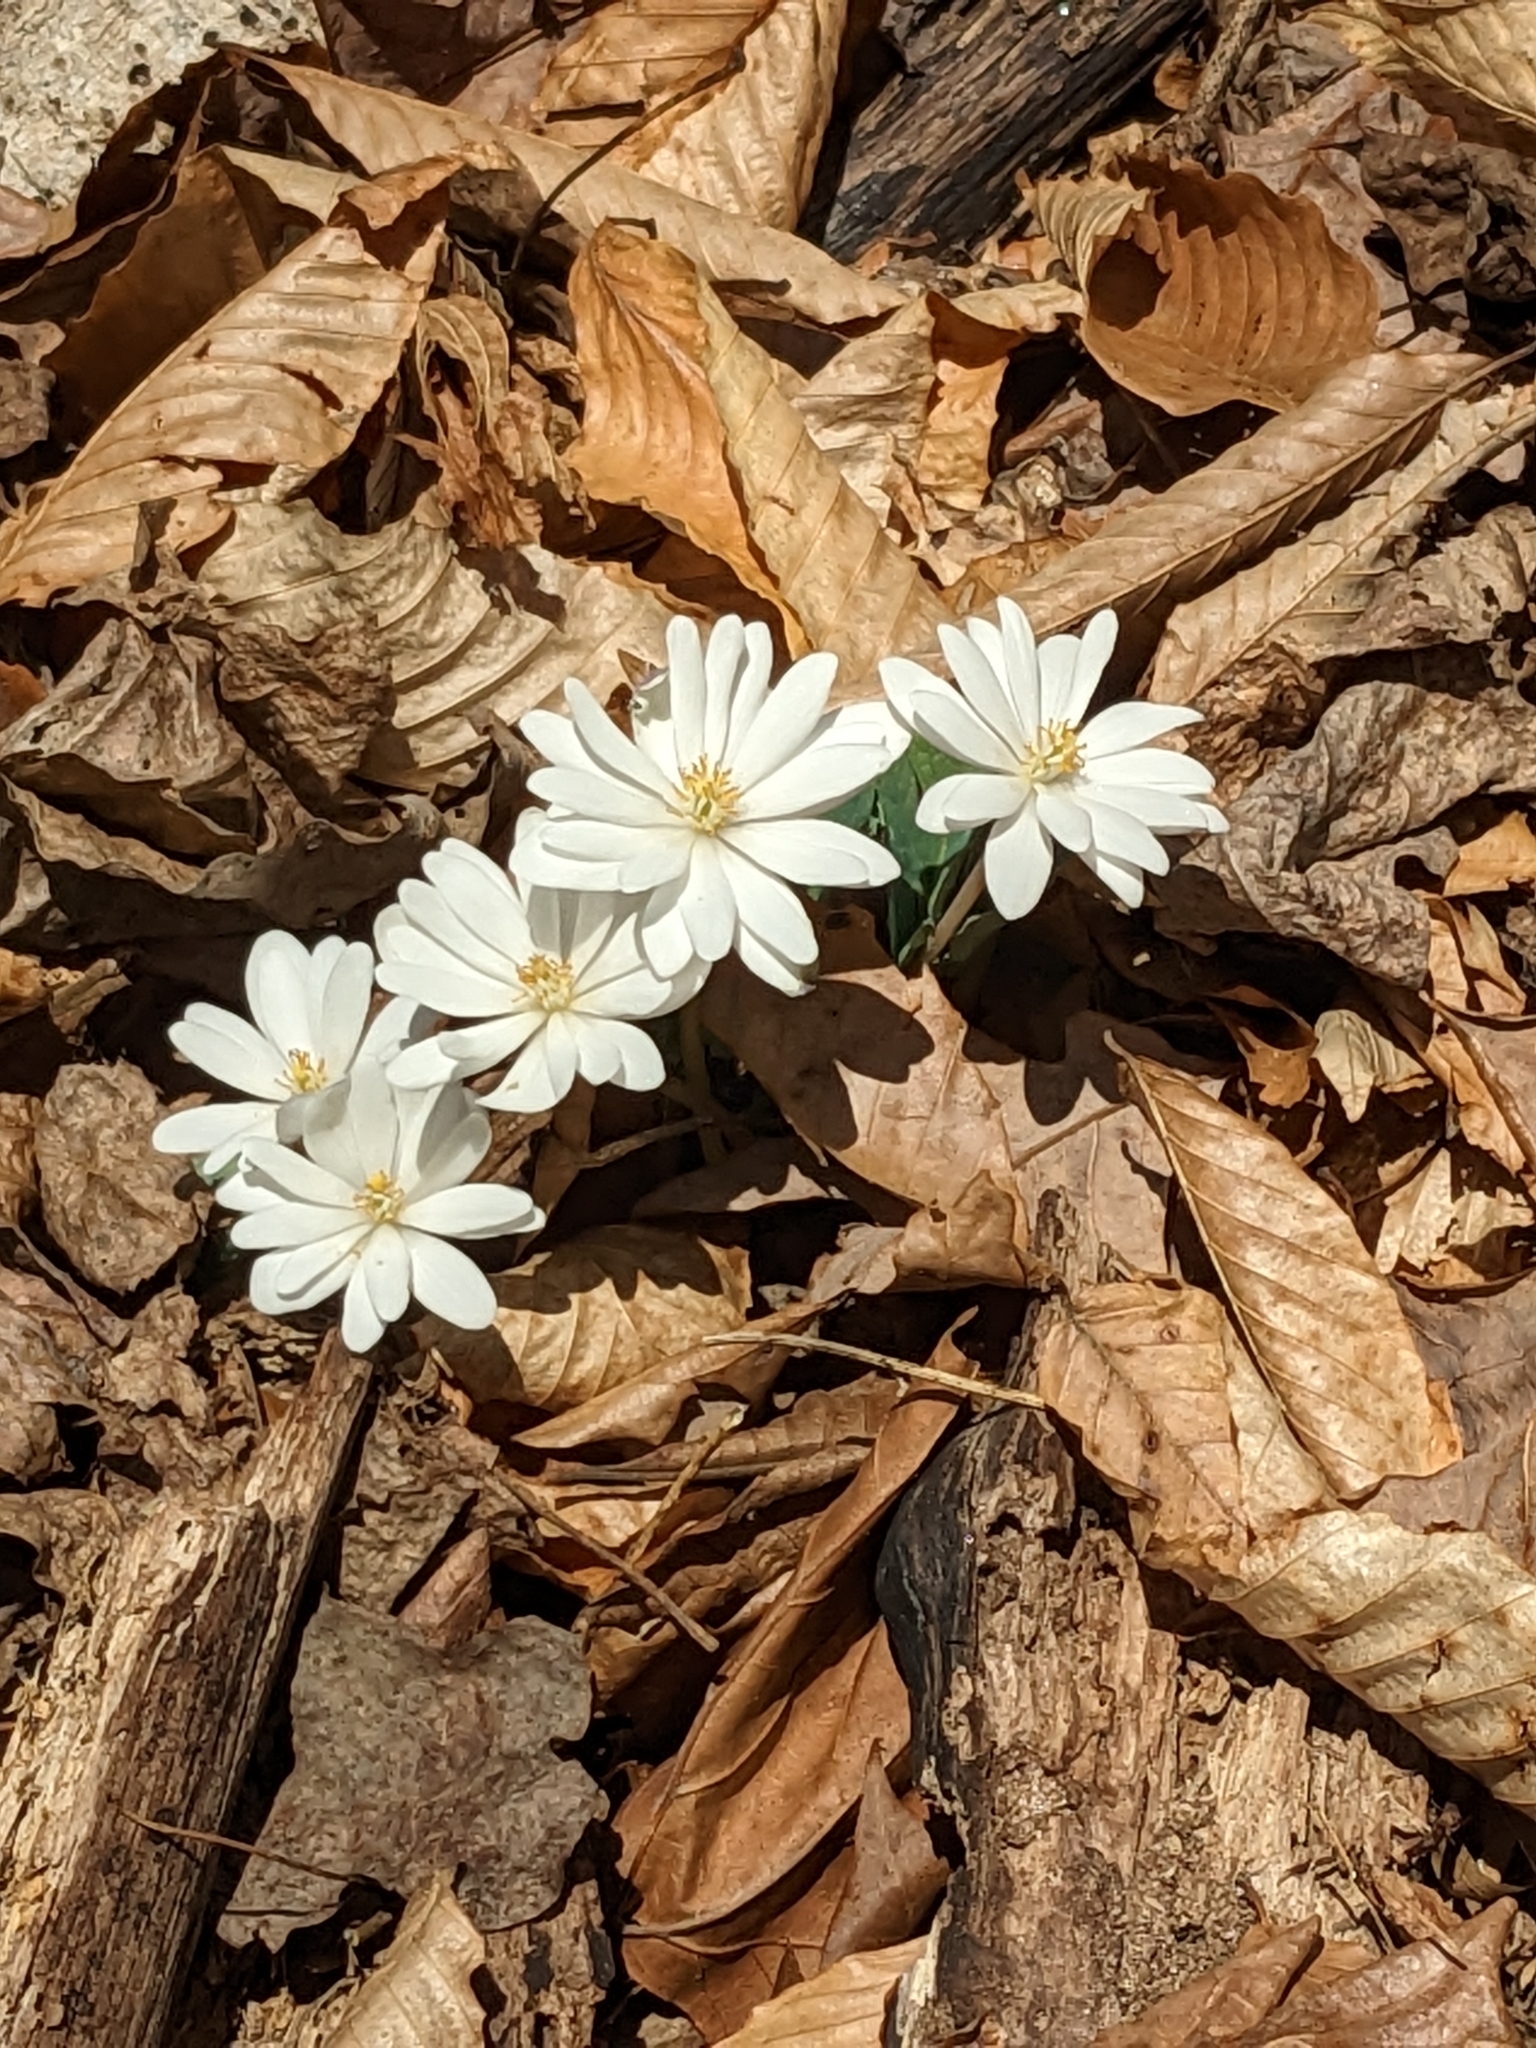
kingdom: Plantae
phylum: Tracheophyta
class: Magnoliopsida
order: Ranunculales
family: Papaveraceae
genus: Sanguinaria
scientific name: Sanguinaria canadensis
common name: Bloodroot
